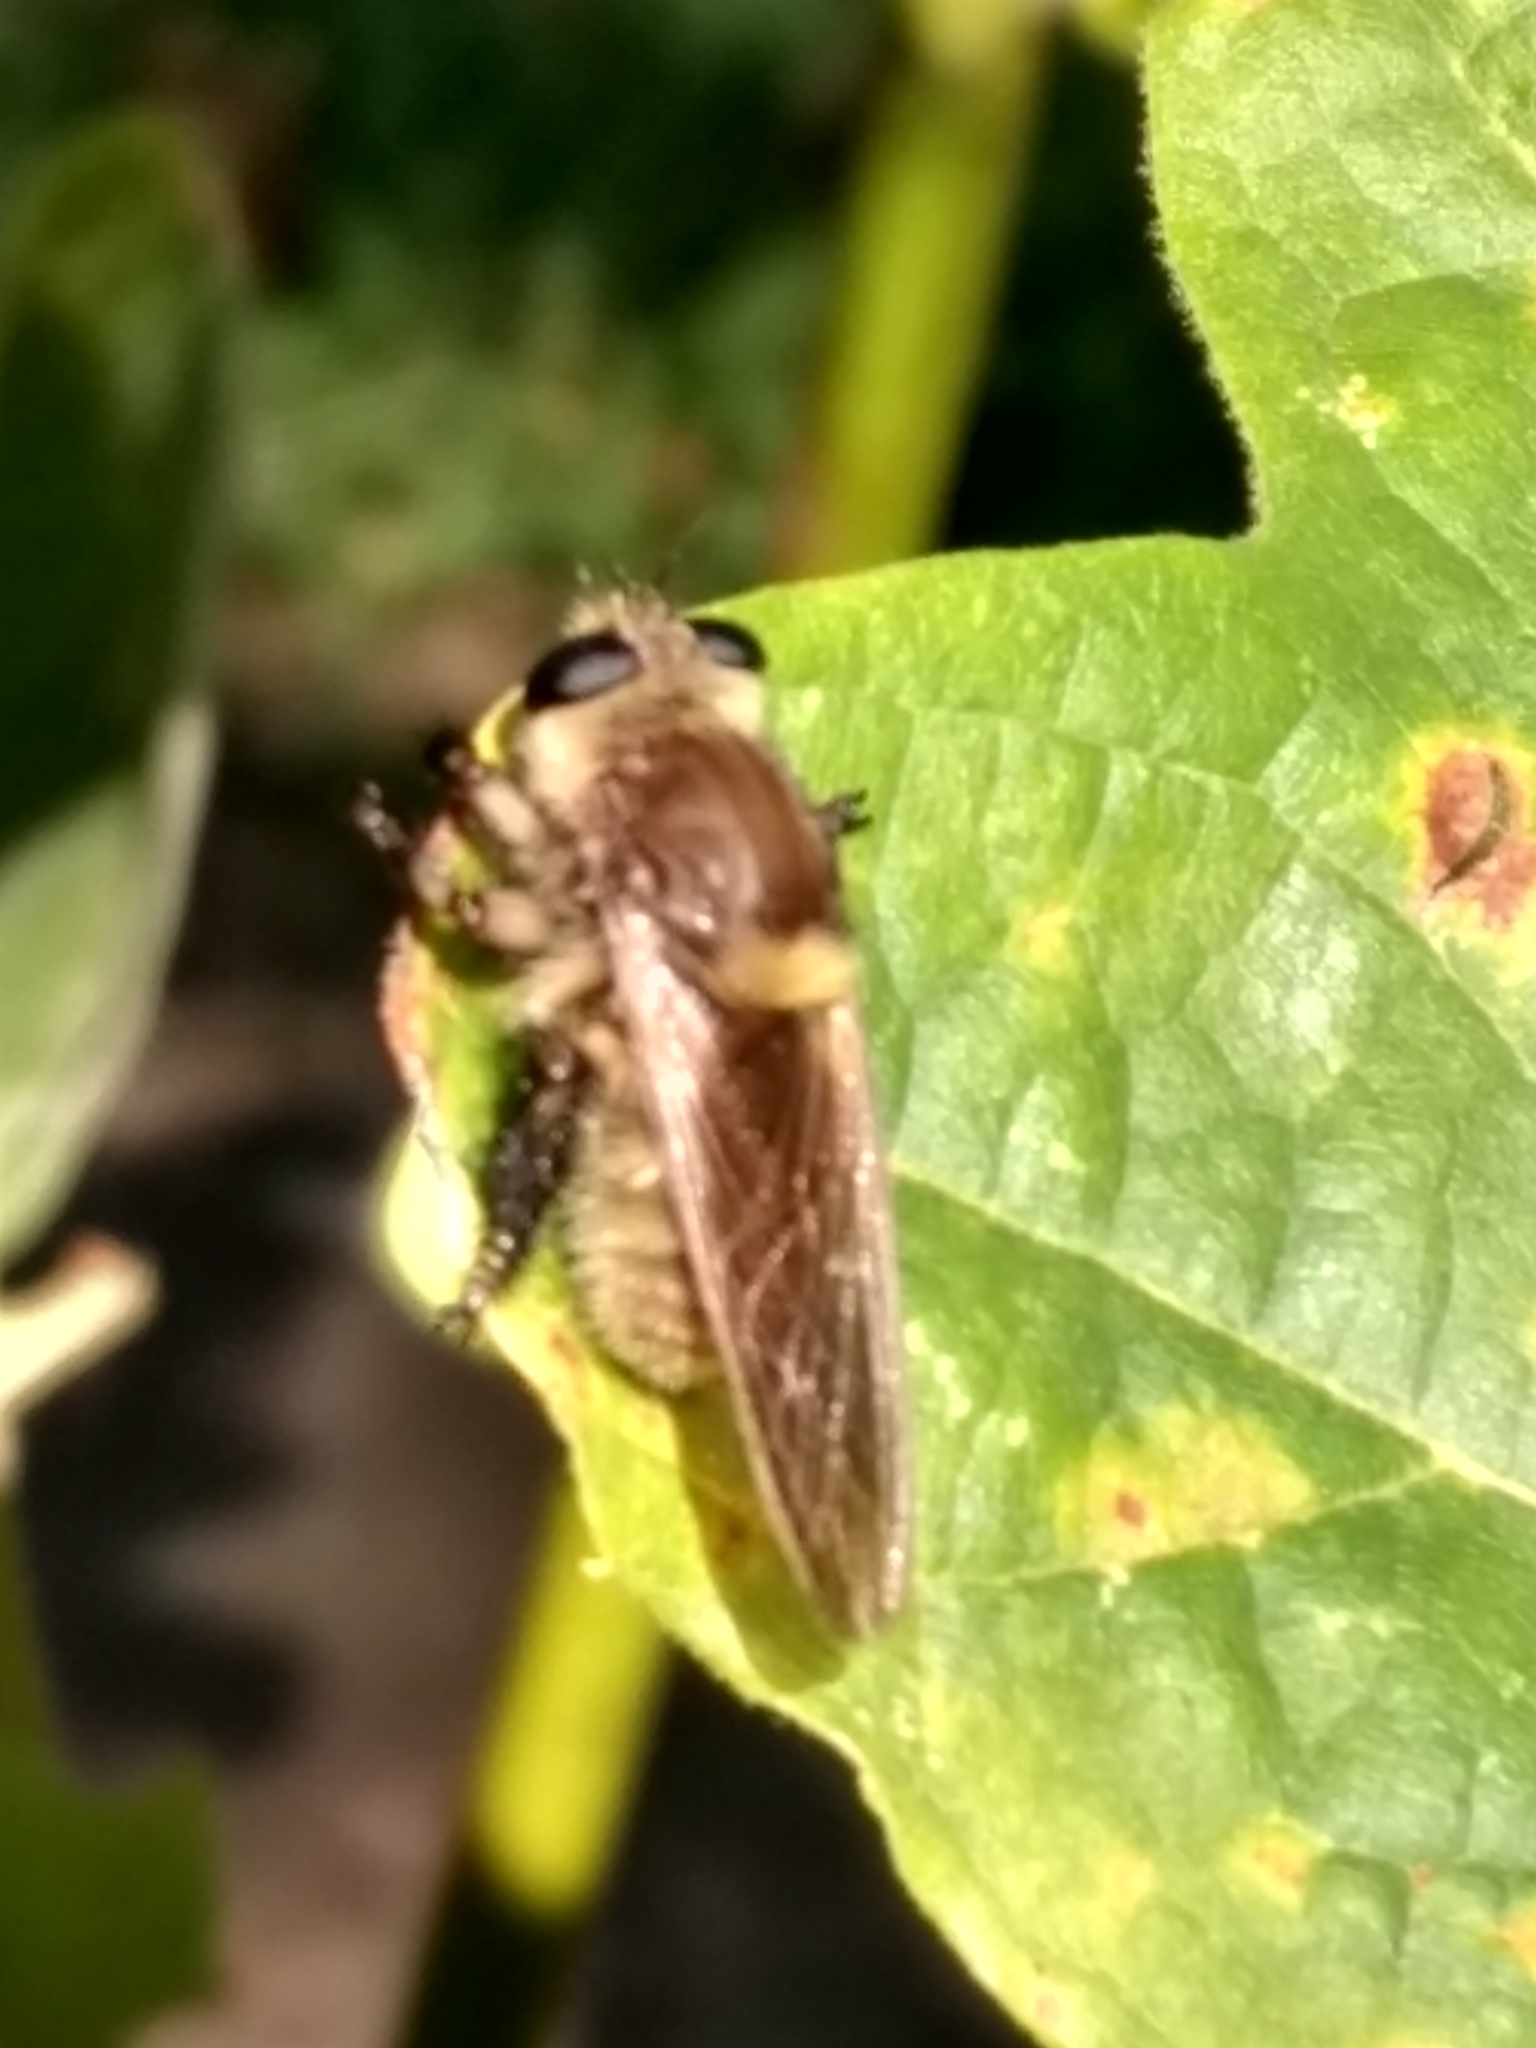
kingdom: Animalia
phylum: Arthropoda
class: Insecta
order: Diptera
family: Asilidae
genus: Mallophora
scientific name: Mallophora fautrix
